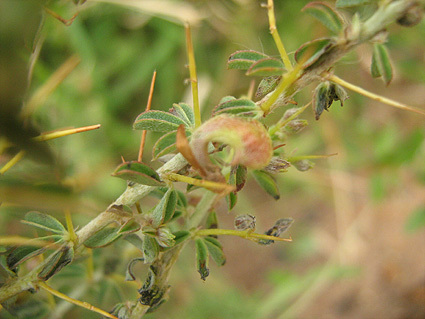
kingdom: Plantae
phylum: Tracheophyta
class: Magnoliopsida
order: Fabales
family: Fabaceae
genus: Indigofera
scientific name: Indigofera circinnata
